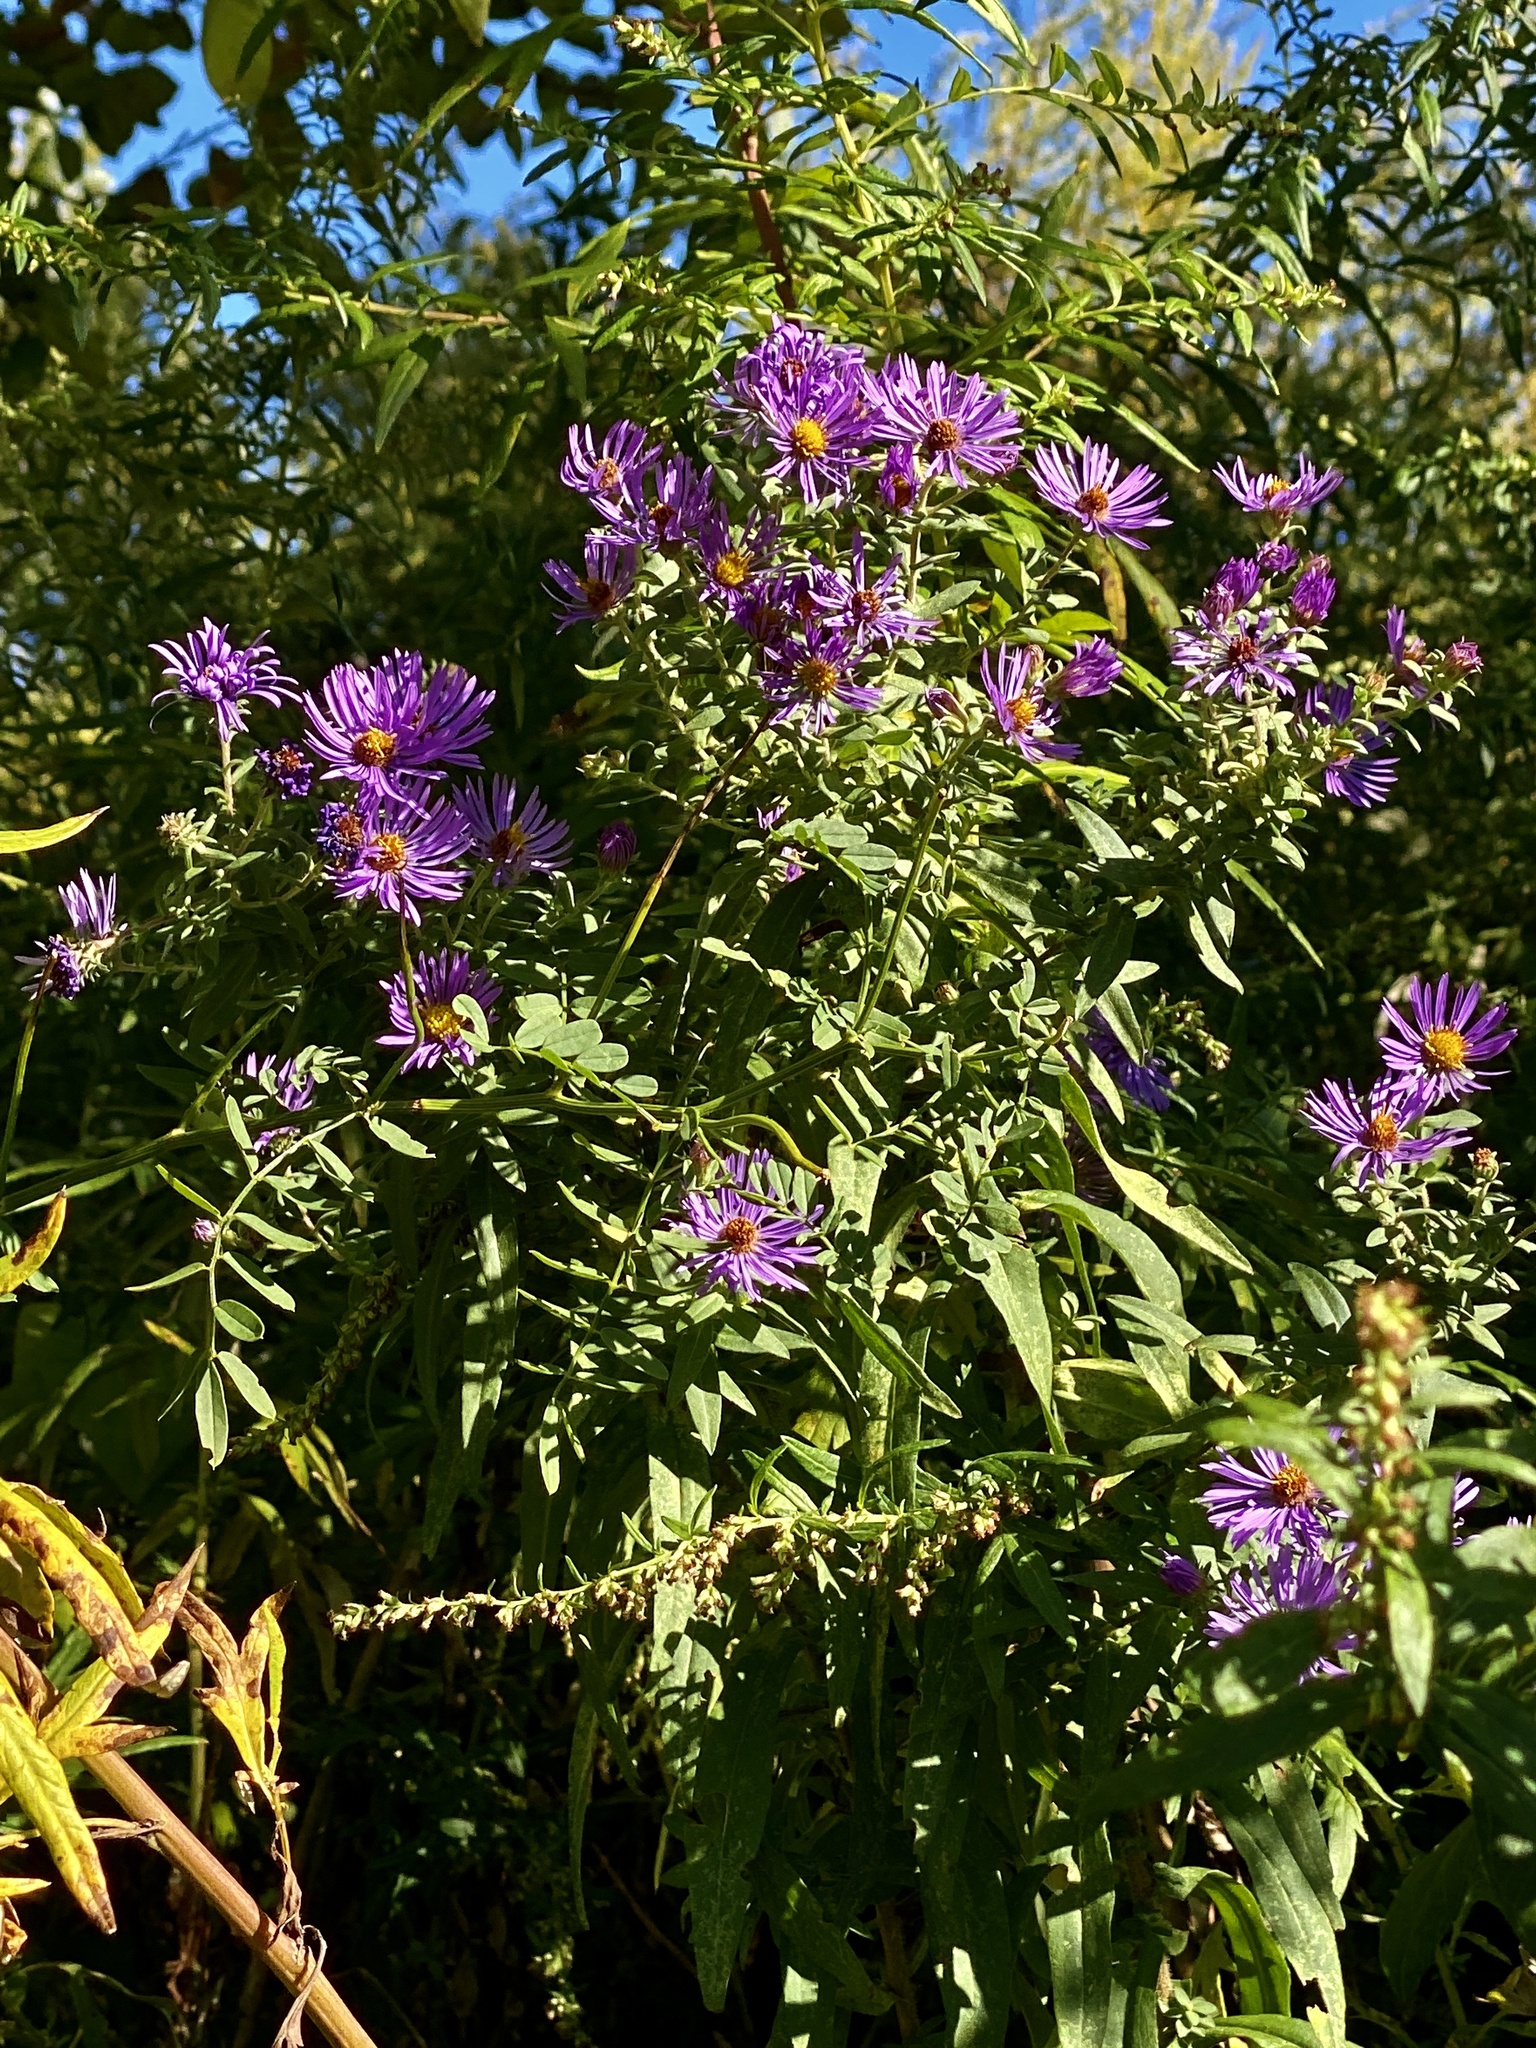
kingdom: Plantae
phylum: Tracheophyta
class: Magnoliopsida
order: Asterales
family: Asteraceae
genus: Symphyotrichum
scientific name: Symphyotrichum novae-angliae
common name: Michaelmas daisy
